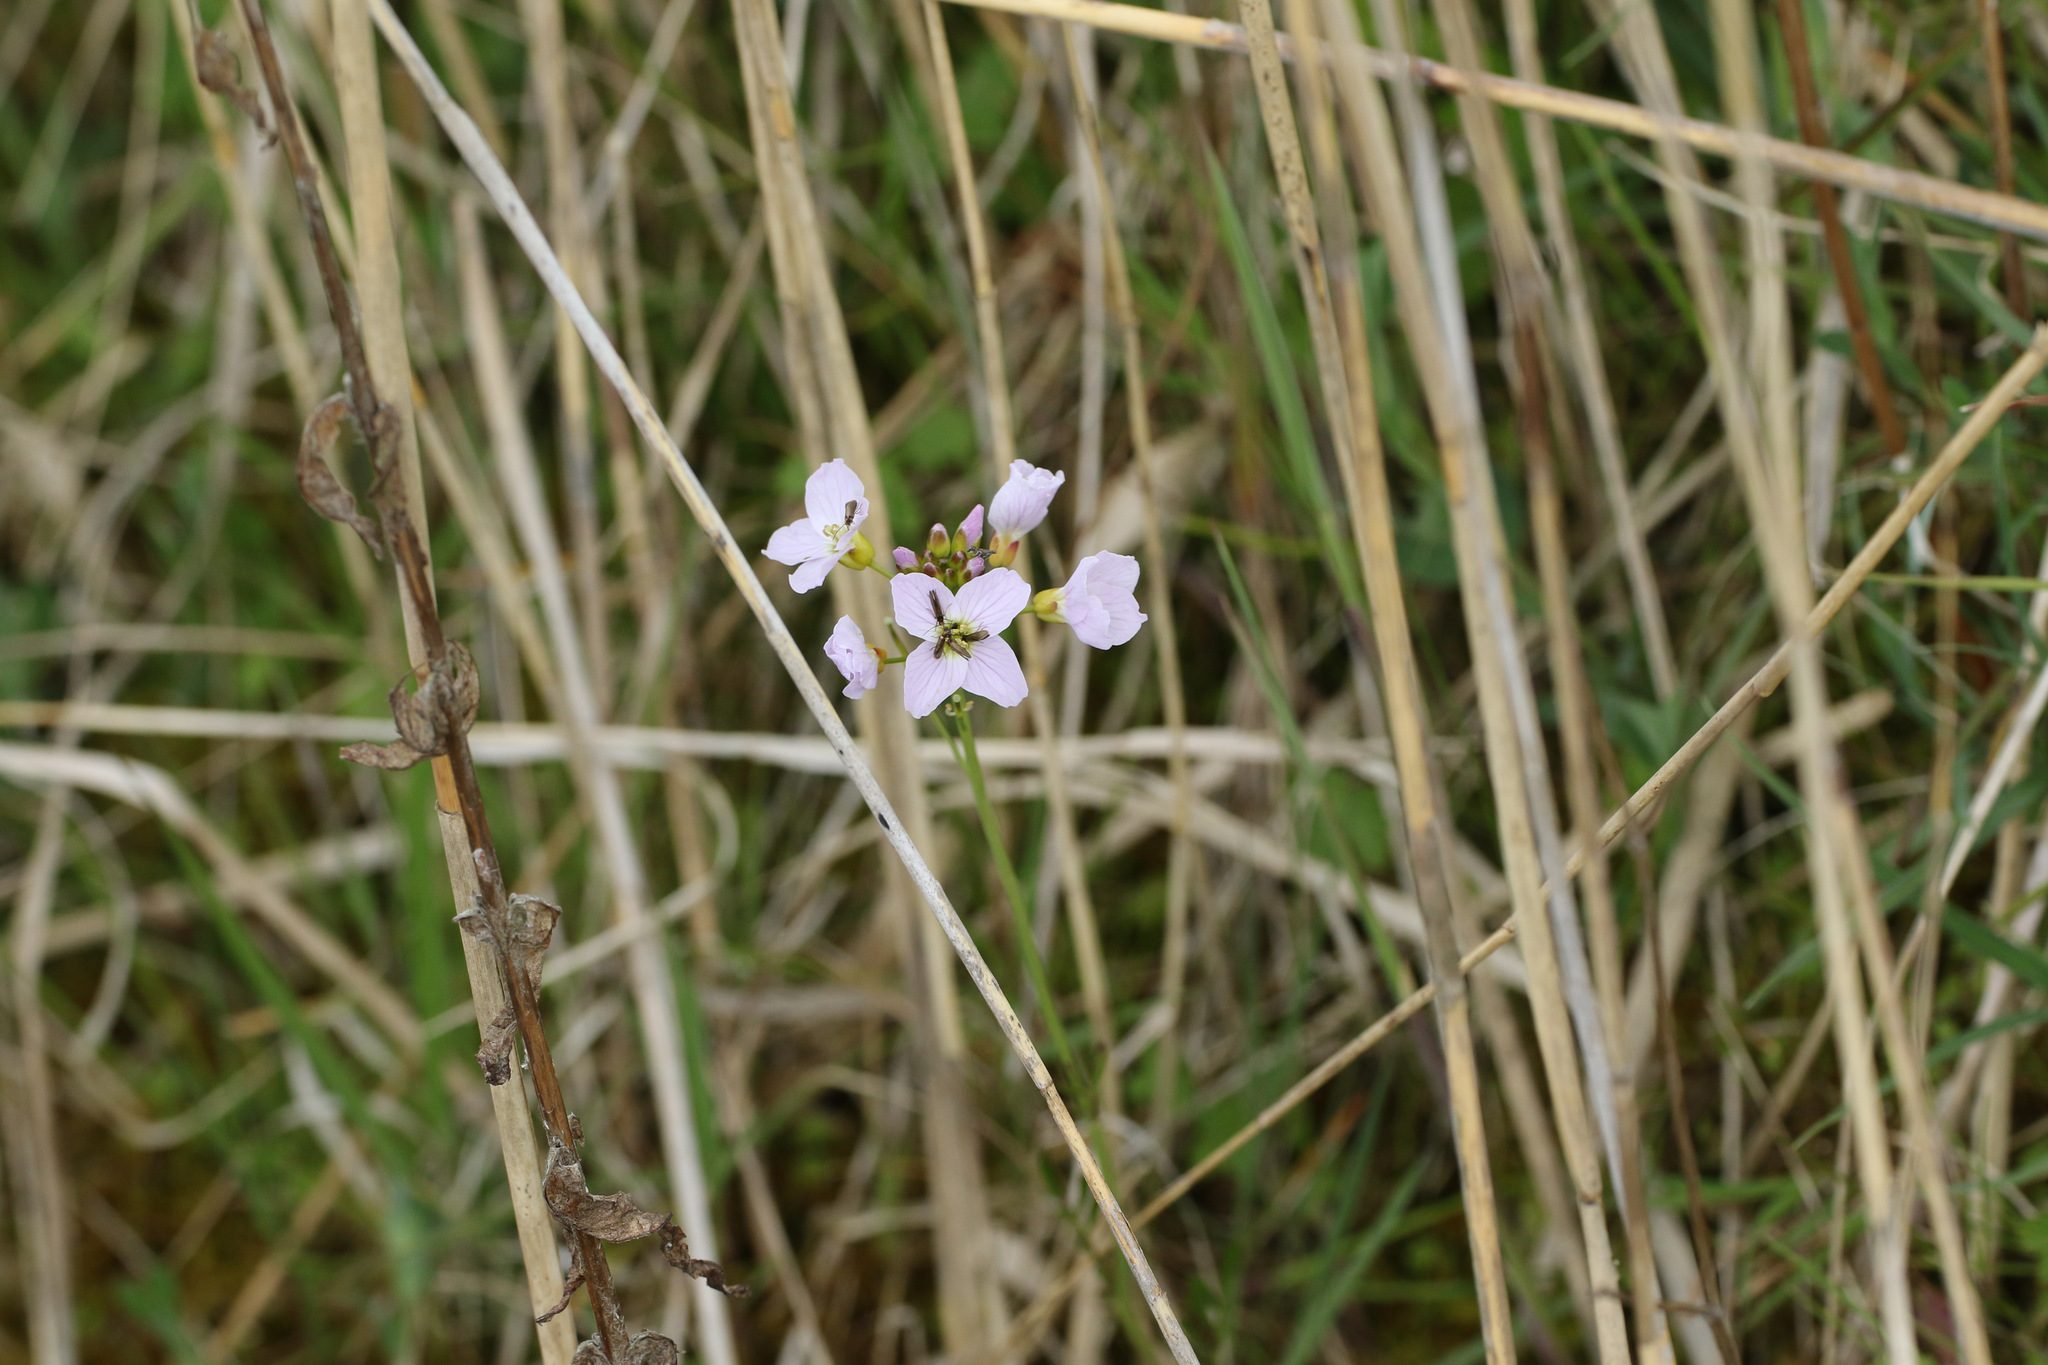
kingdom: Plantae
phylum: Tracheophyta
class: Magnoliopsida
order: Brassicales
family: Brassicaceae
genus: Cardamine
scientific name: Cardamine pratensis
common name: Cuckoo flower
